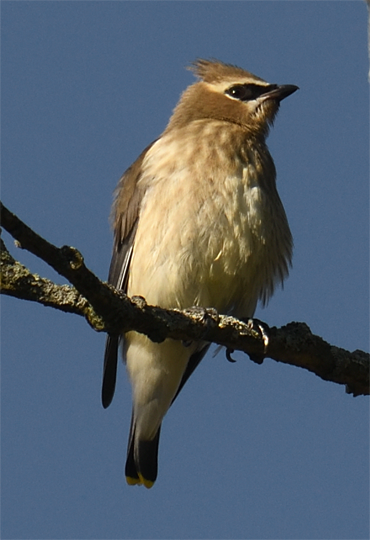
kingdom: Animalia
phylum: Chordata
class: Aves
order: Passeriformes
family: Bombycillidae
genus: Bombycilla
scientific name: Bombycilla cedrorum
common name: Cedar waxwing
